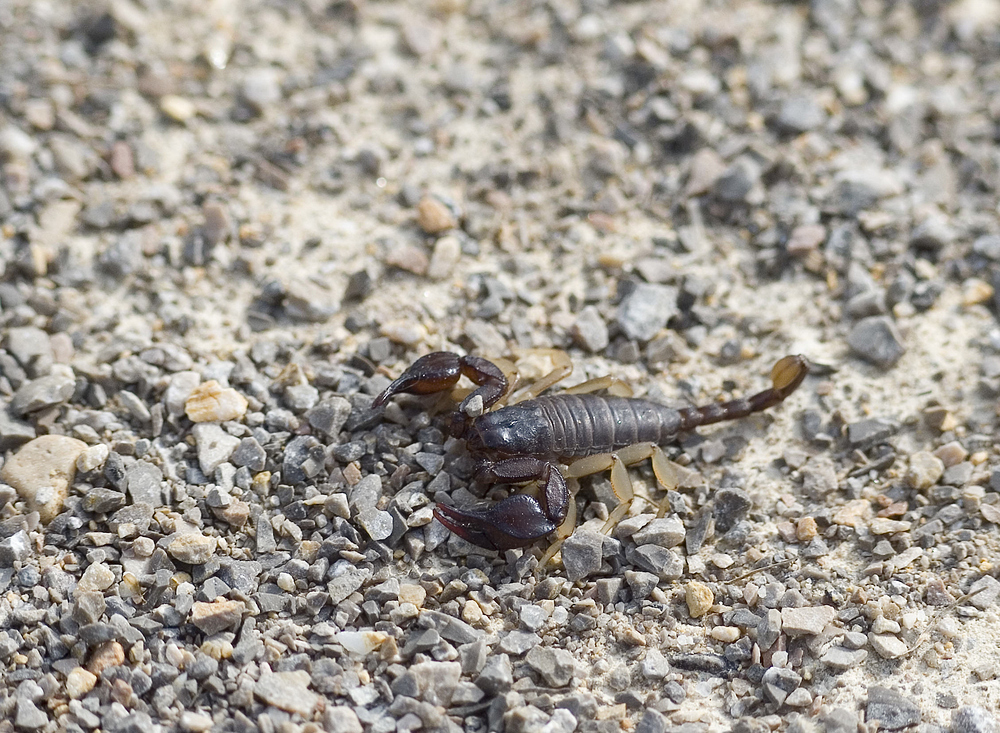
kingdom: Animalia
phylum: Arthropoda
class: Arachnida
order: Scorpiones
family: Euscorpiidae
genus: Euscorpius
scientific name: Euscorpius flavicaudis
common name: European yellow-tailed scorpion
